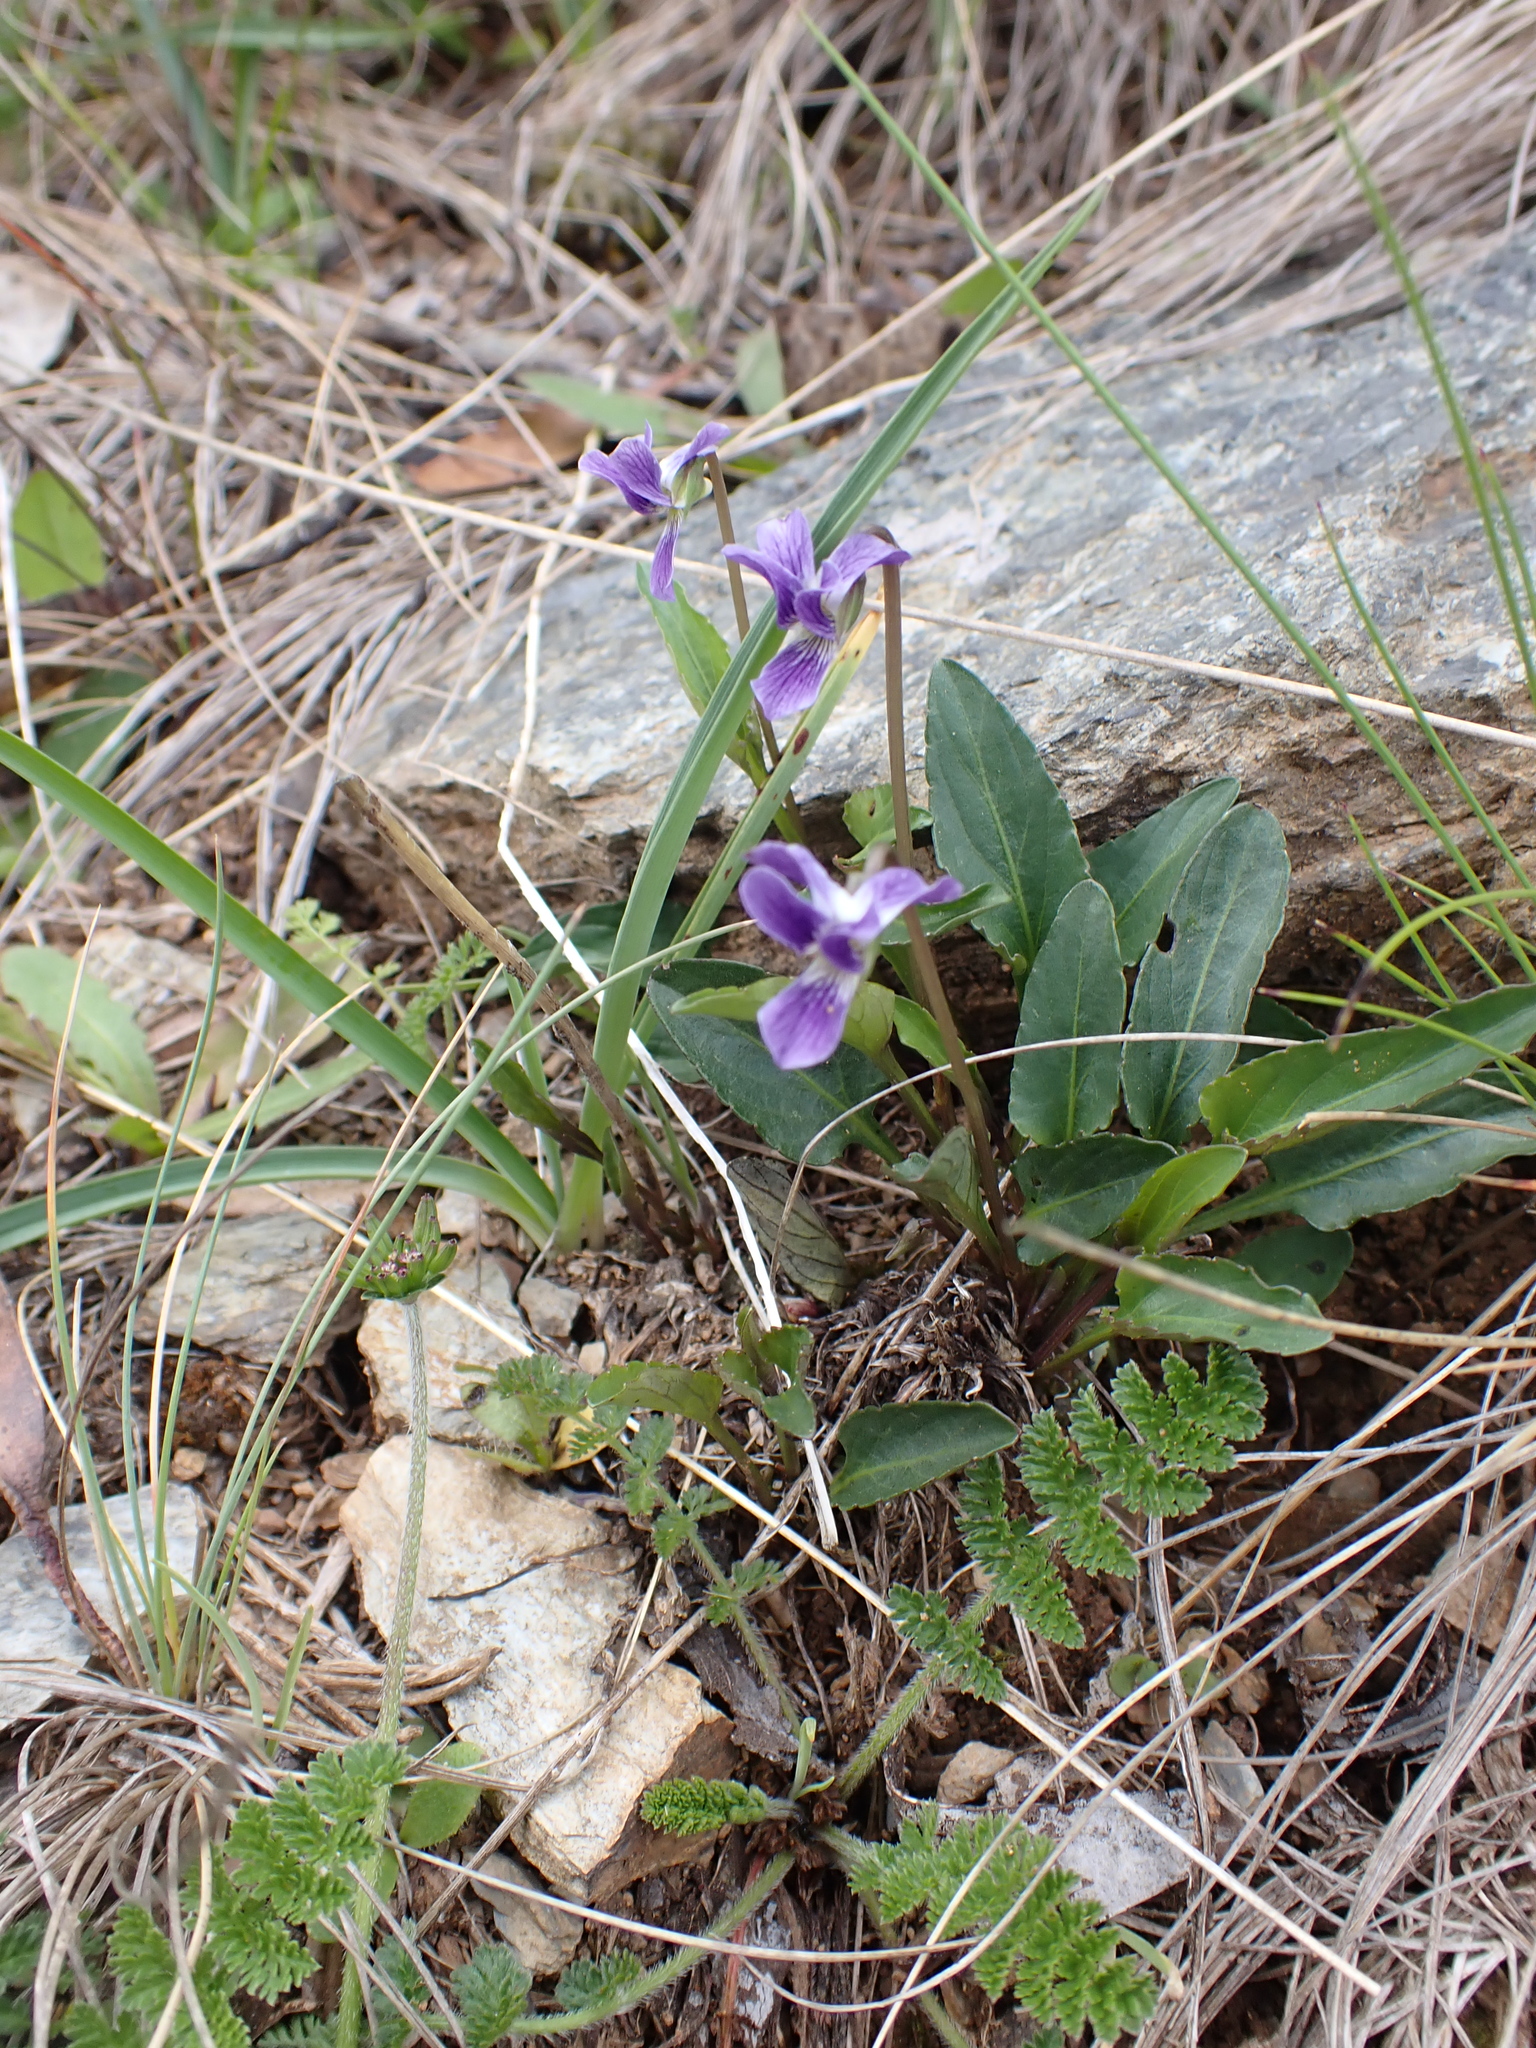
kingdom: Plantae
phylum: Tracheophyta
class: Magnoliopsida
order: Malpighiales
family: Violaceae
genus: Viola
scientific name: Viola betonicifolia
